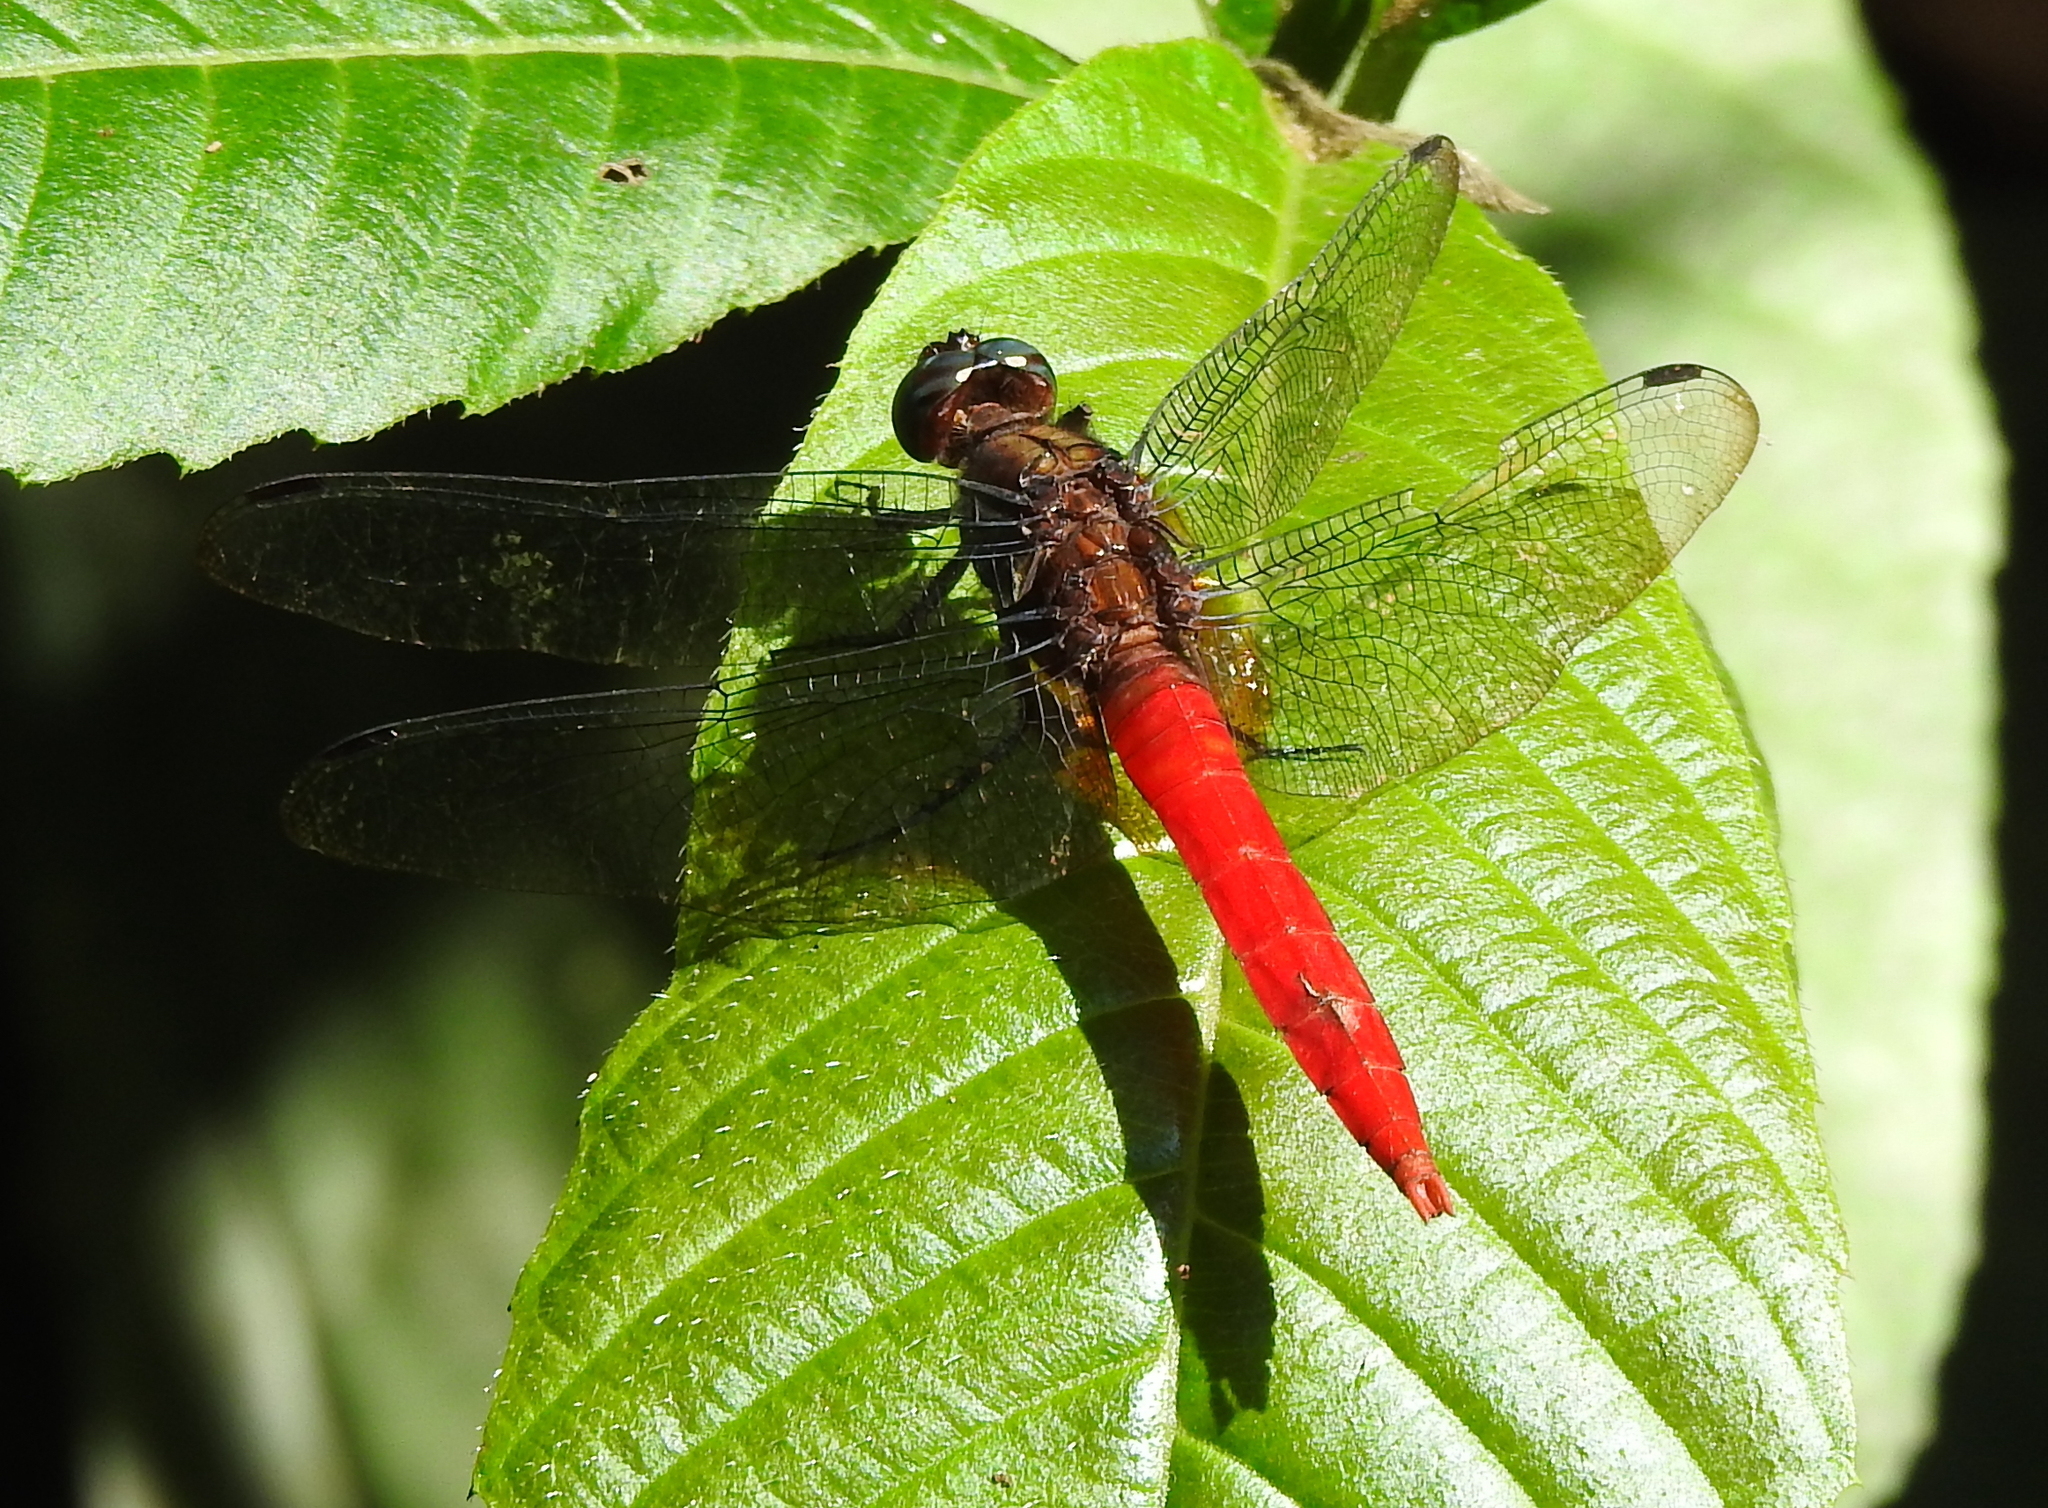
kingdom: Animalia
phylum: Arthropoda
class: Insecta
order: Odonata
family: Libellulidae
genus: Orthetrum
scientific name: Orthetrum chrysis
